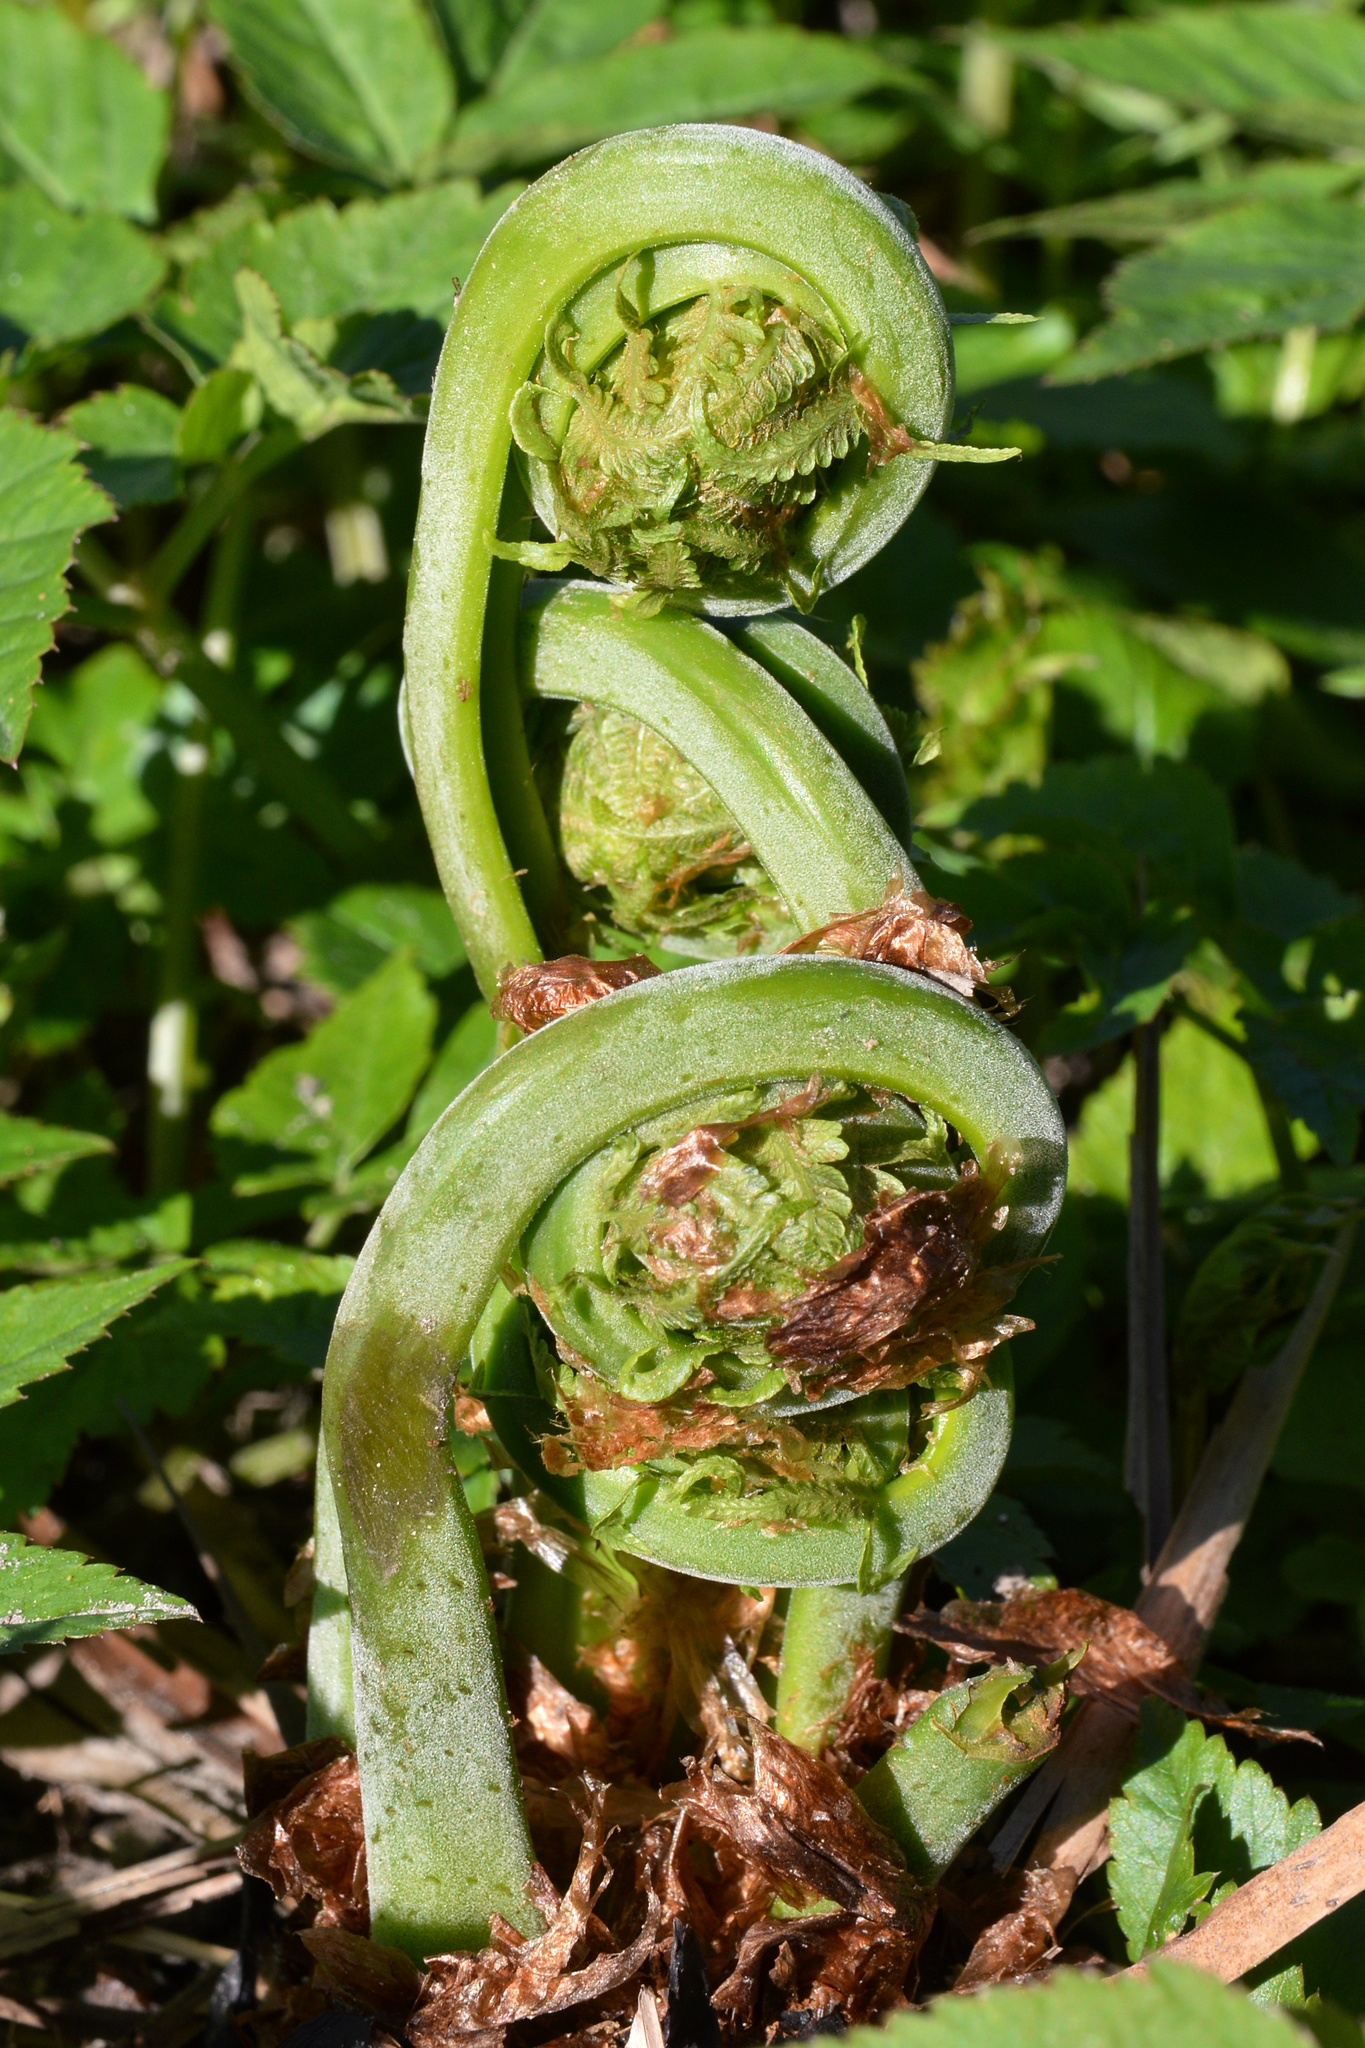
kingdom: Plantae
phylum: Tracheophyta
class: Polypodiopsida
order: Polypodiales
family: Onocleaceae
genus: Matteuccia
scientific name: Matteuccia struthiopteris
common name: Ostrich fern
